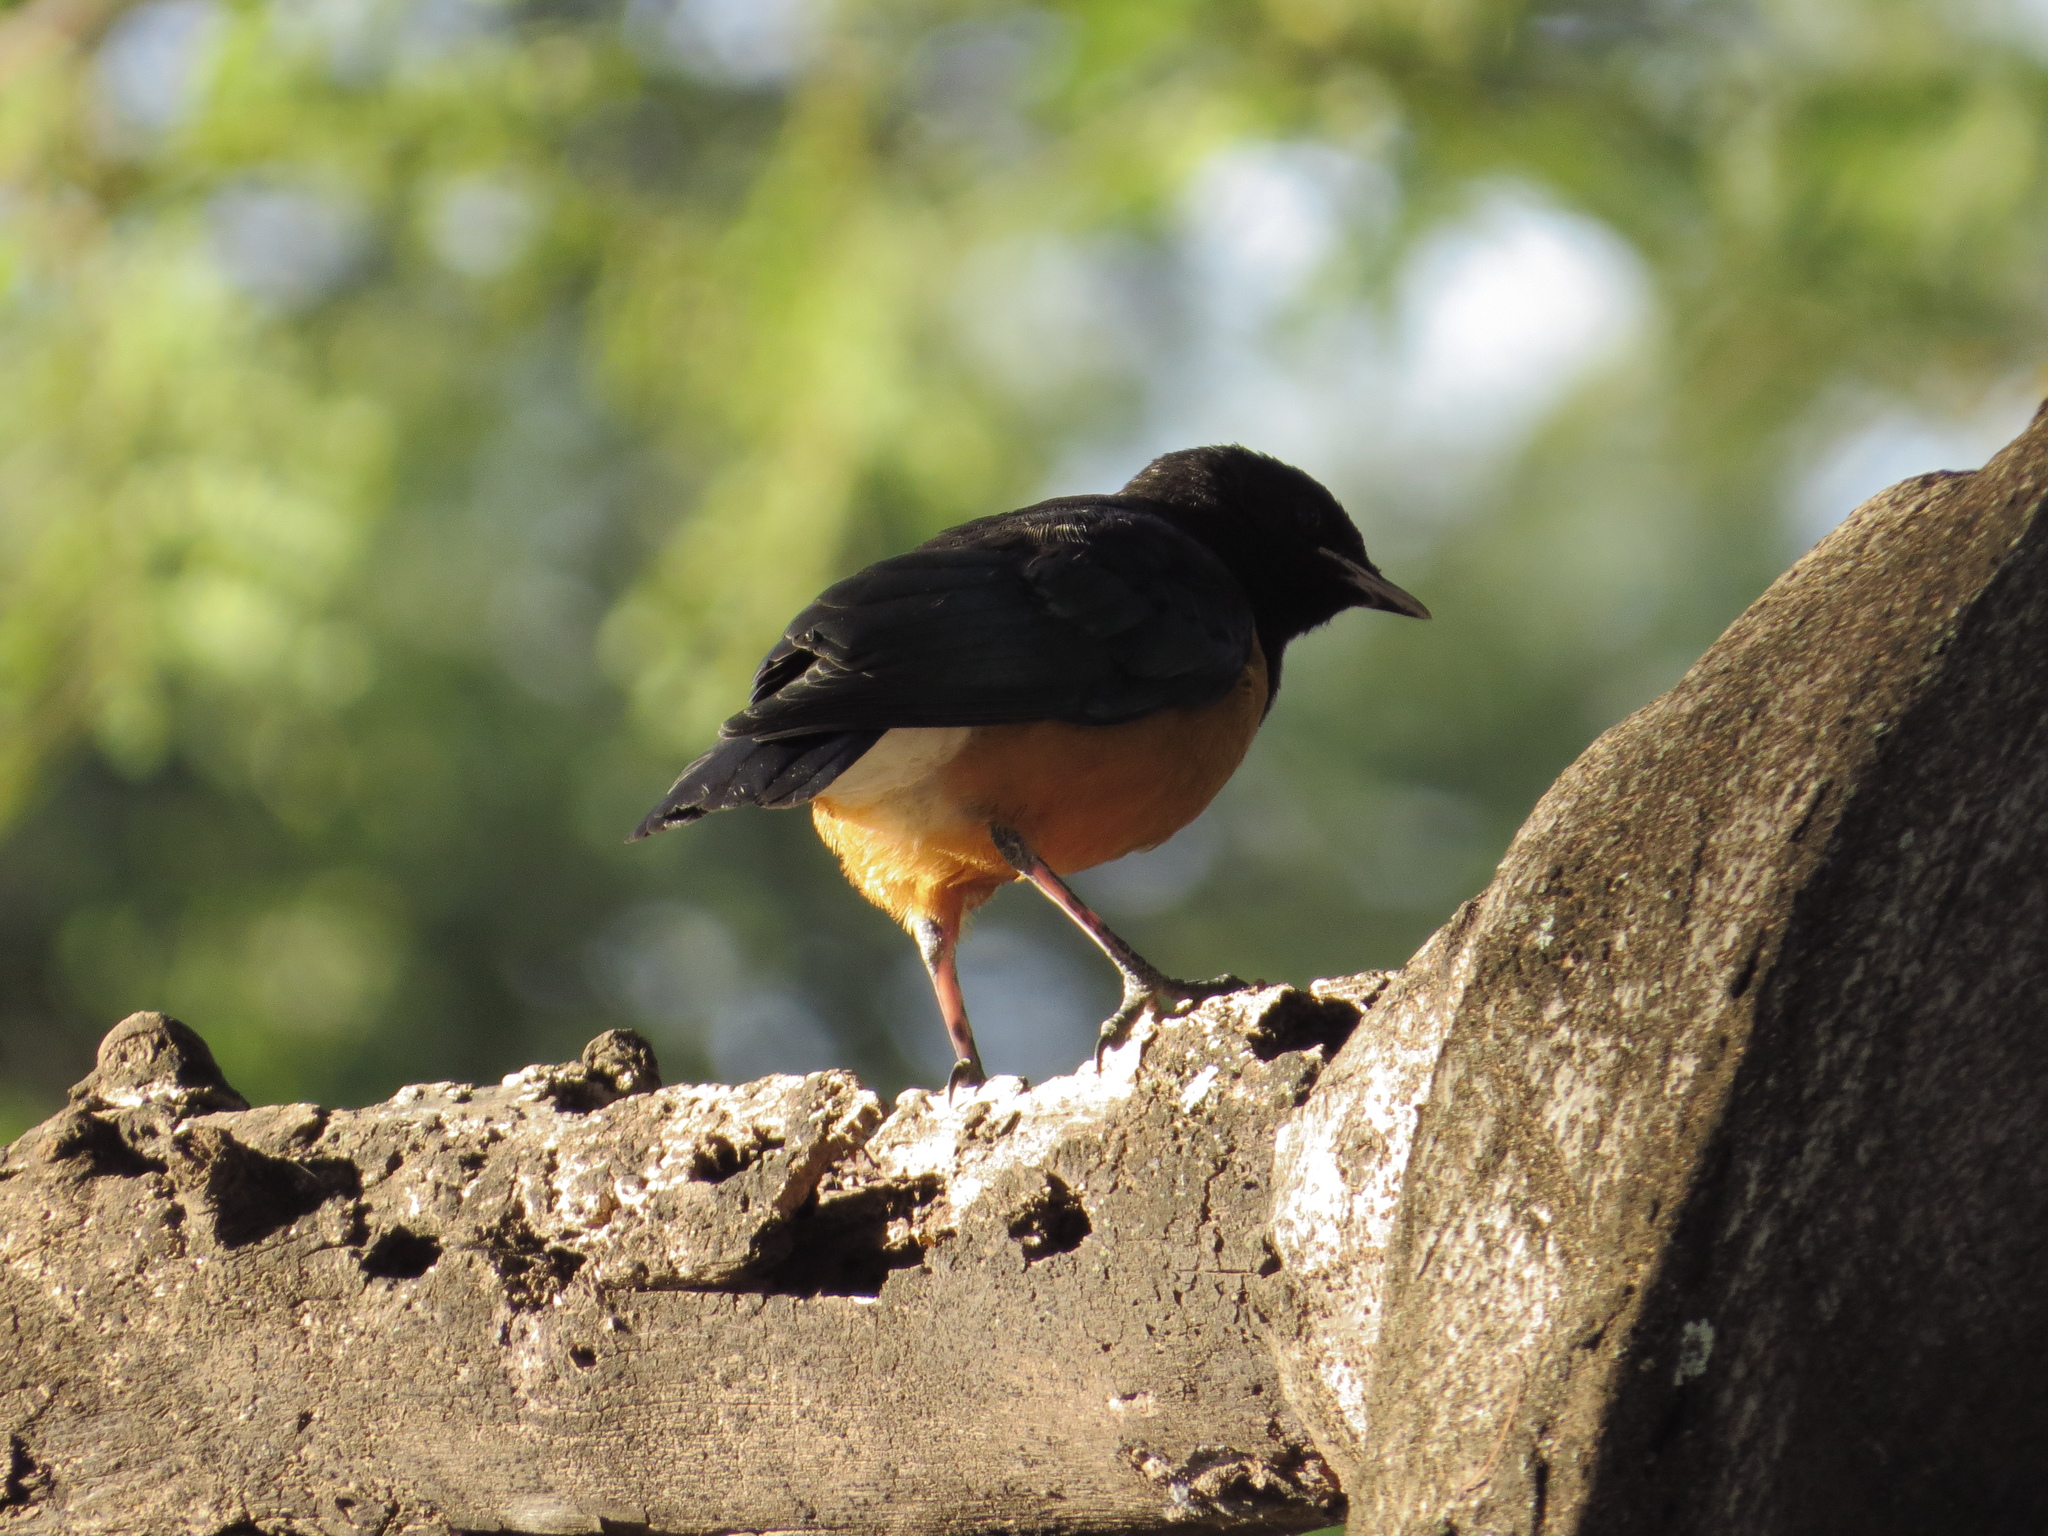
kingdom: Animalia
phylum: Chordata
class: Aves
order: Passeriformes
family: Sturnidae
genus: Lamprotornis
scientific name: Lamprotornis superbus
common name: Superb starling
